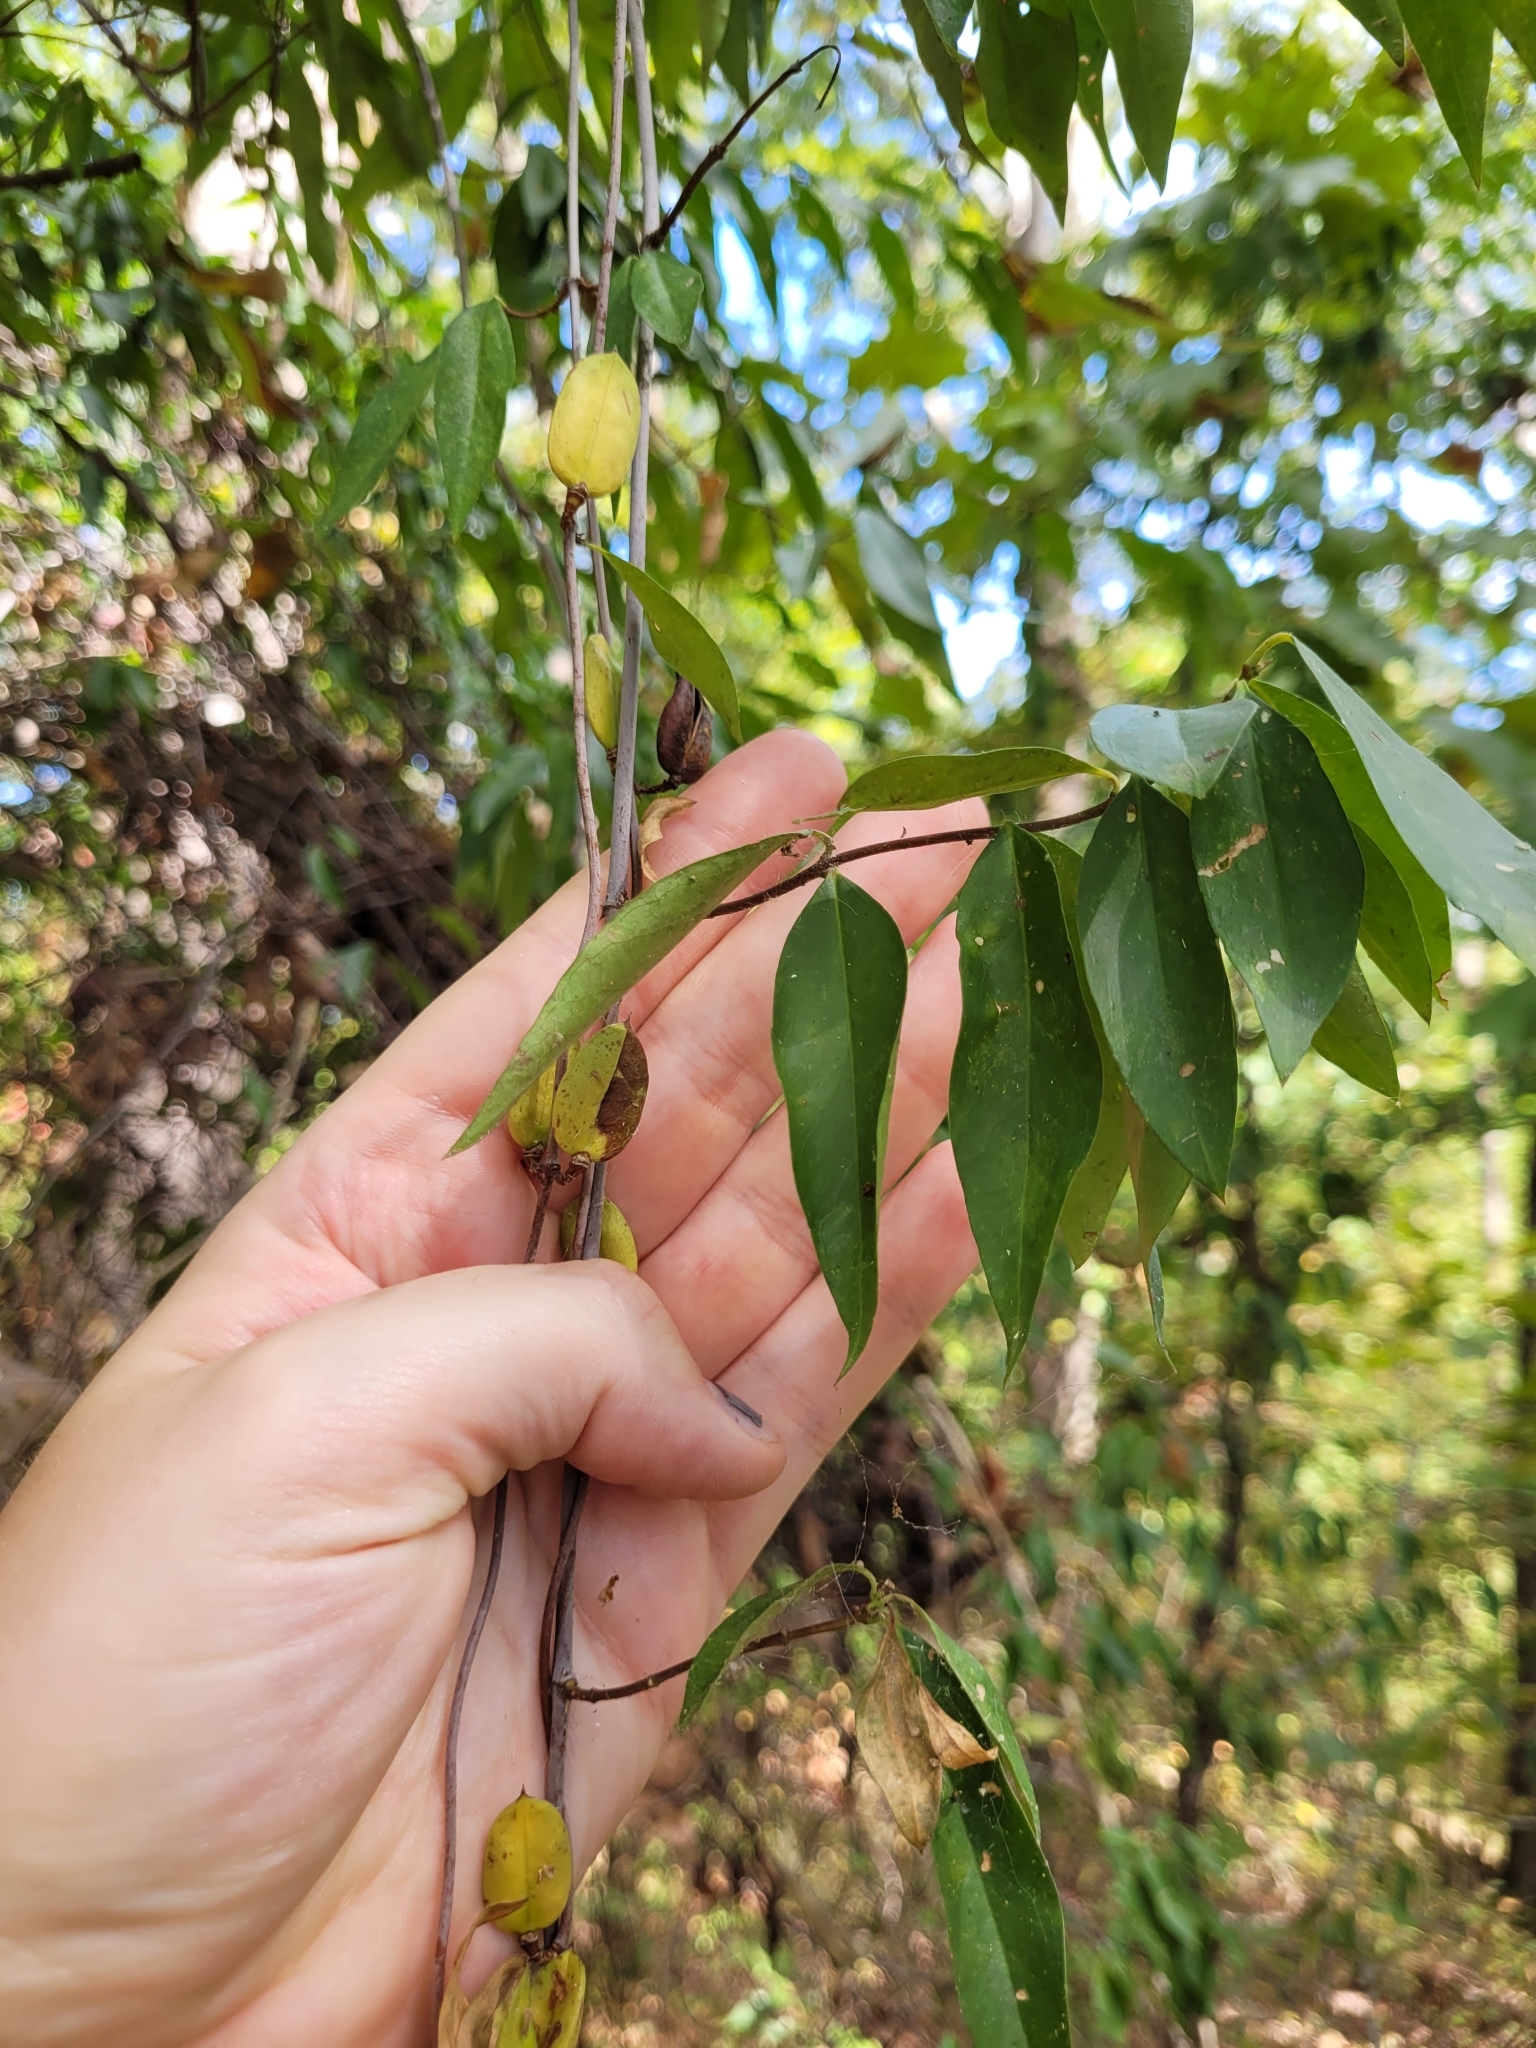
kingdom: Plantae
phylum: Tracheophyta
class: Magnoliopsida
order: Gentianales
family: Gelsemiaceae
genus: Gelsemium
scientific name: Gelsemium sempervirens
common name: Carolina-jasmine
